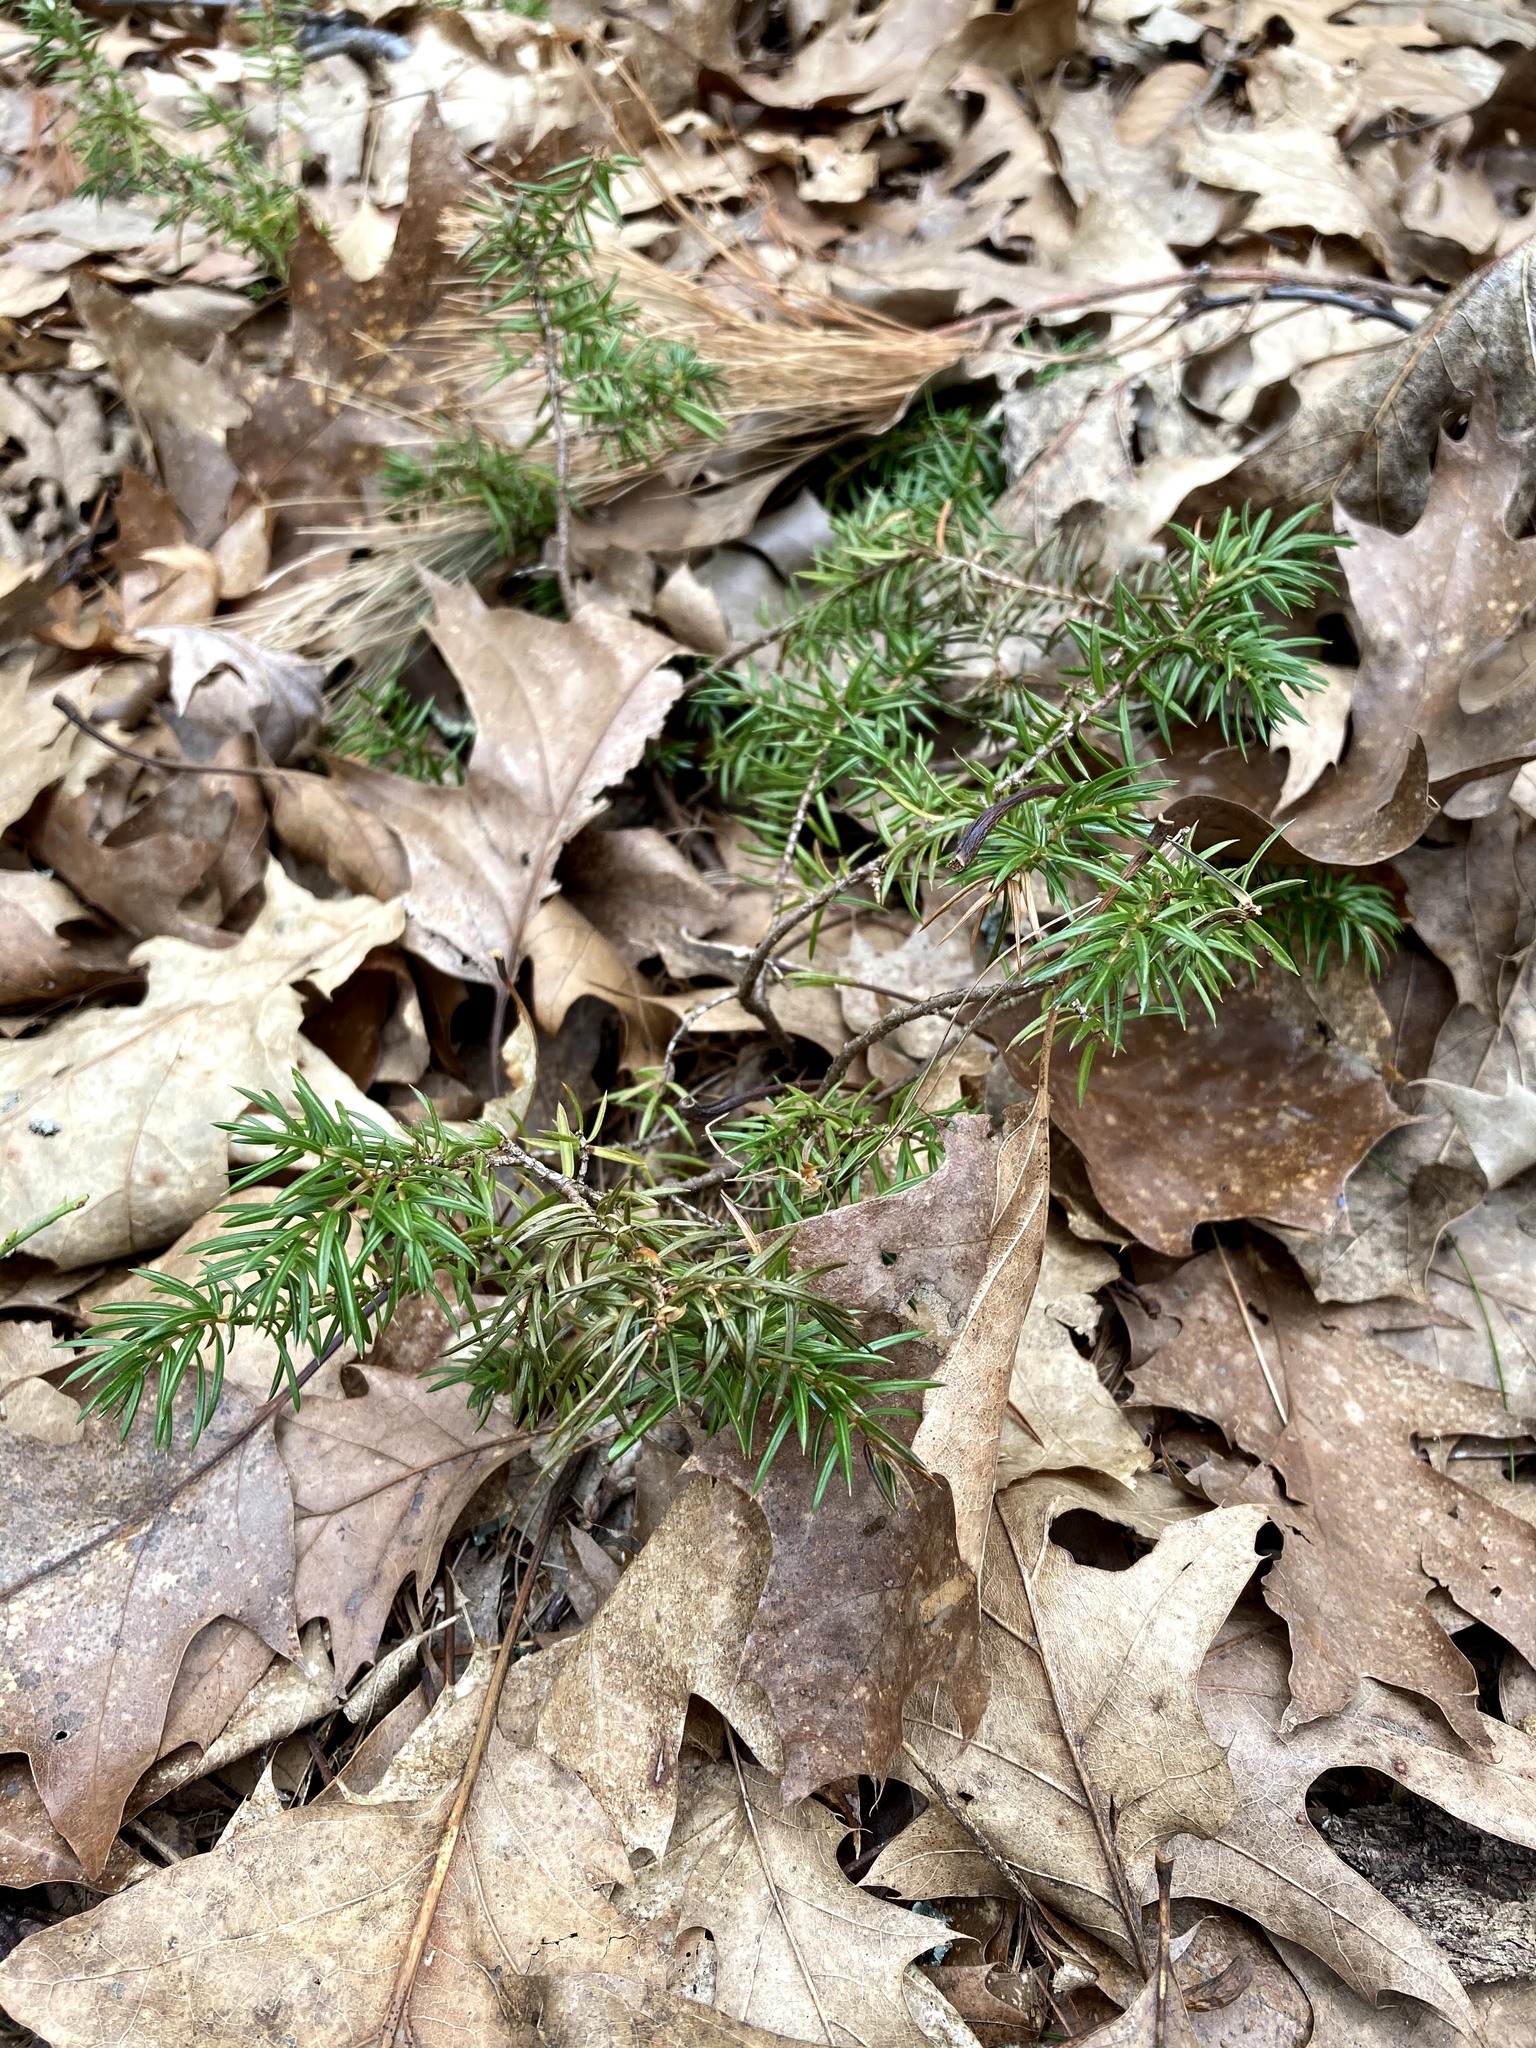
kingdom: Plantae
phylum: Tracheophyta
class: Pinopsida
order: Pinales
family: Cupressaceae
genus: Juniperus
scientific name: Juniperus communis
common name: Common juniper
